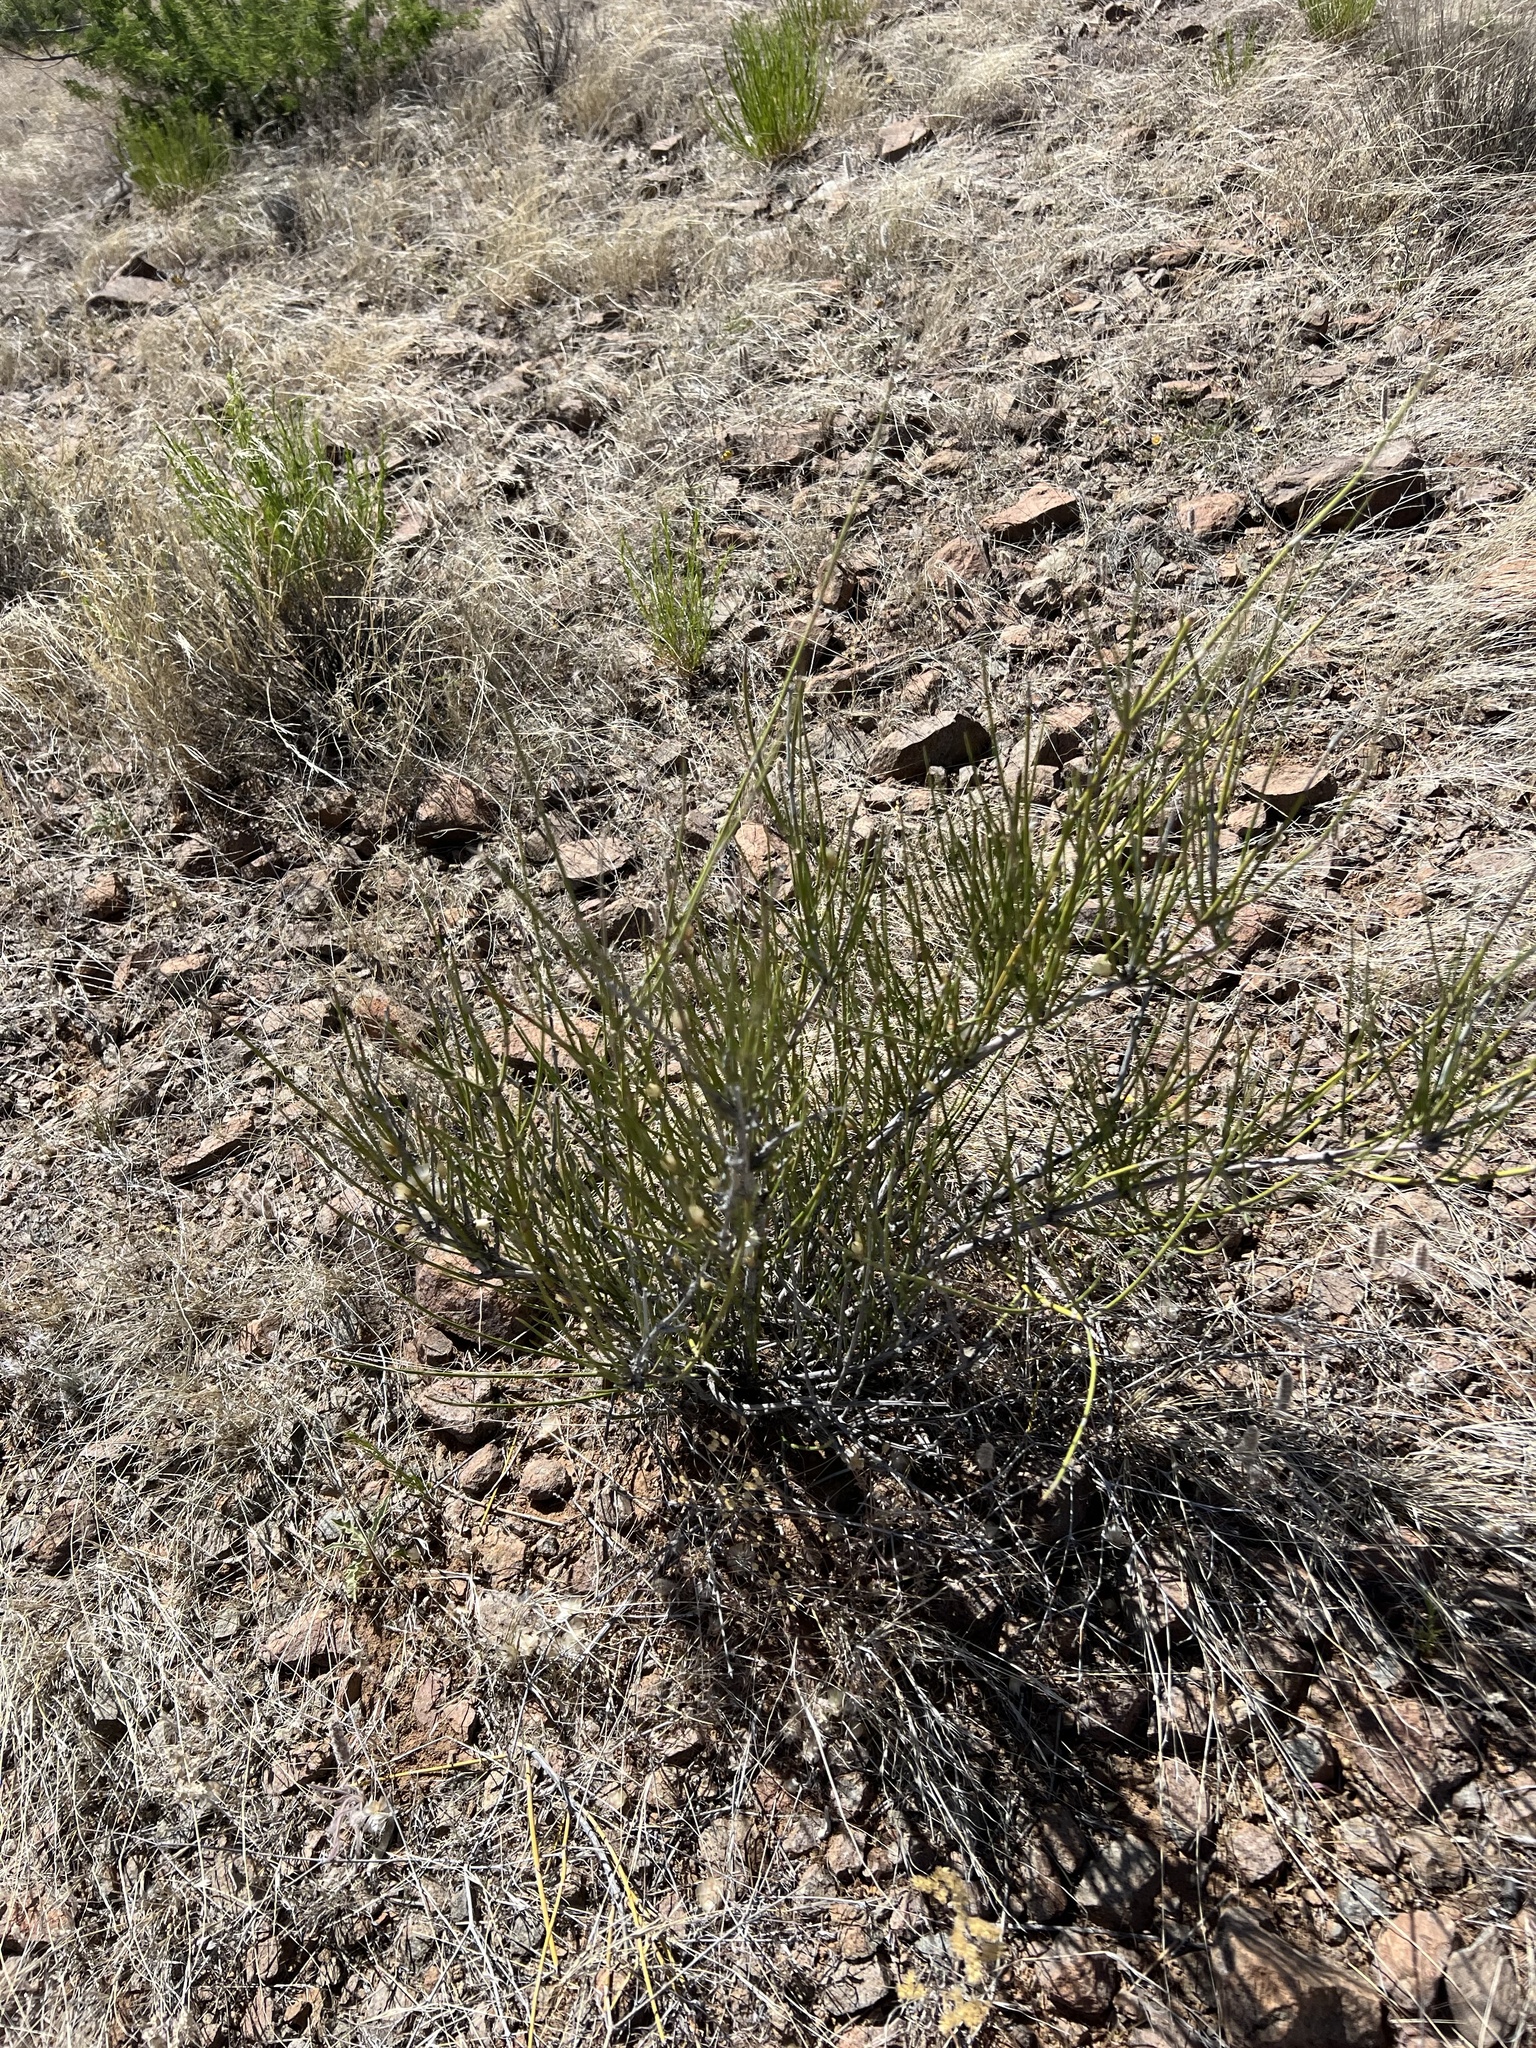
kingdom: Plantae
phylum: Tracheophyta
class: Gnetopsida
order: Ephedrales
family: Ephedraceae
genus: Ephedra
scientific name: Ephedra trifurca
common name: Mexican-tea
